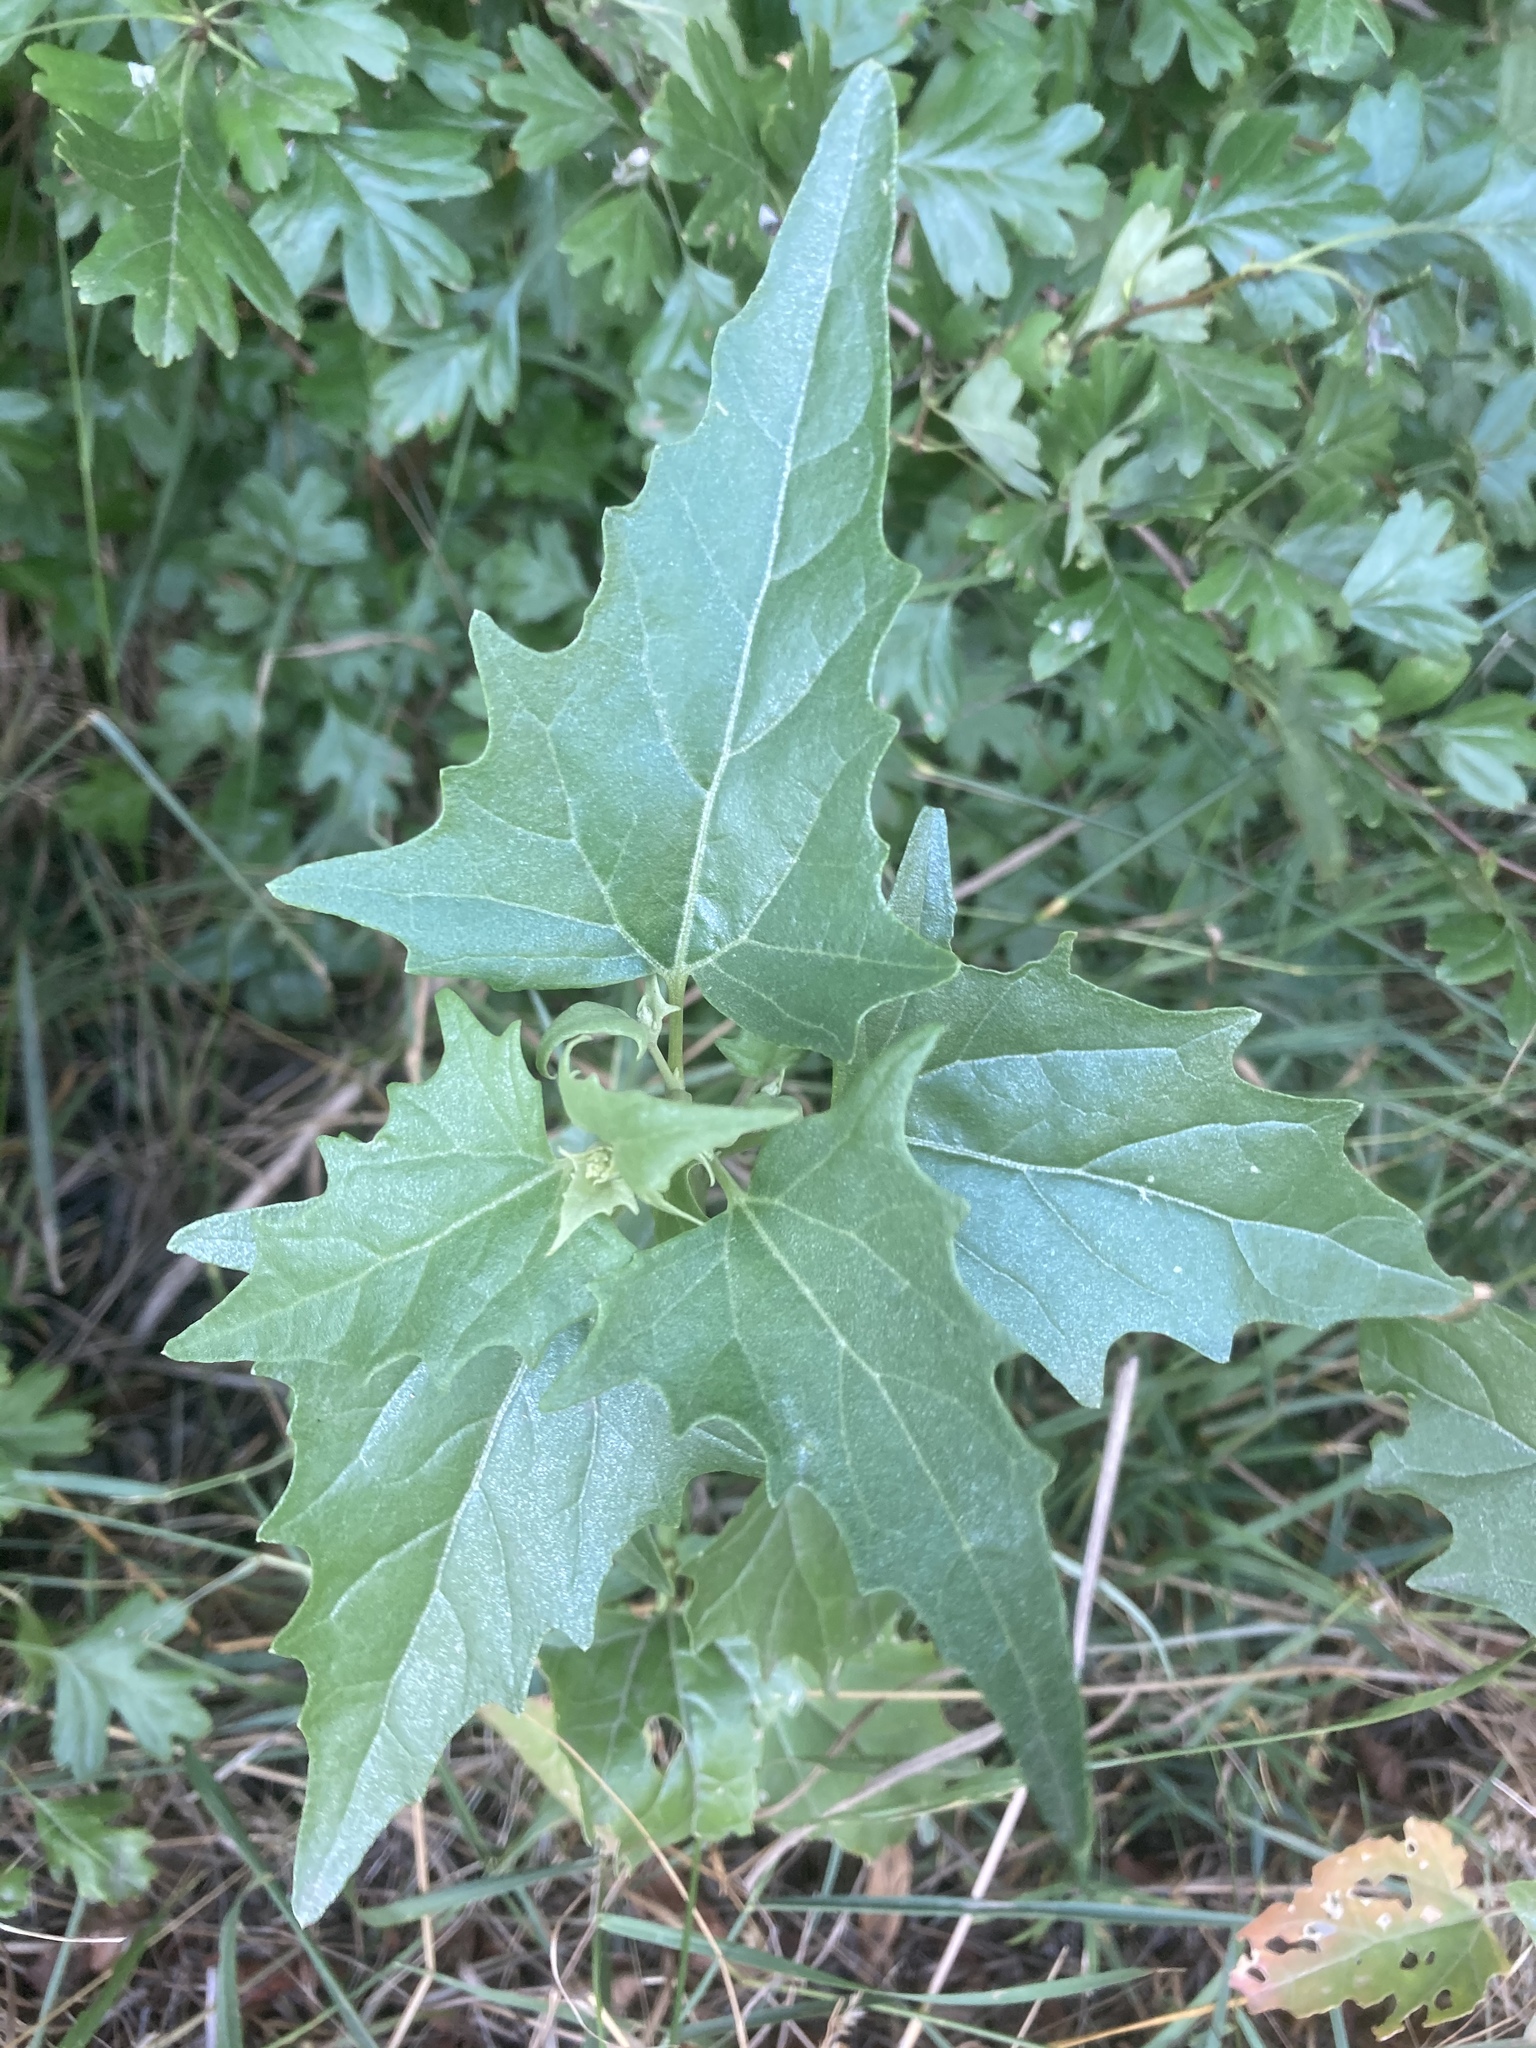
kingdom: Plantae
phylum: Tracheophyta
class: Magnoliopsida
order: Caryophyllales
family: Amaranthaceae
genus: Atriplex
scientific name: Atriplex sagittata
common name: Purple orache
